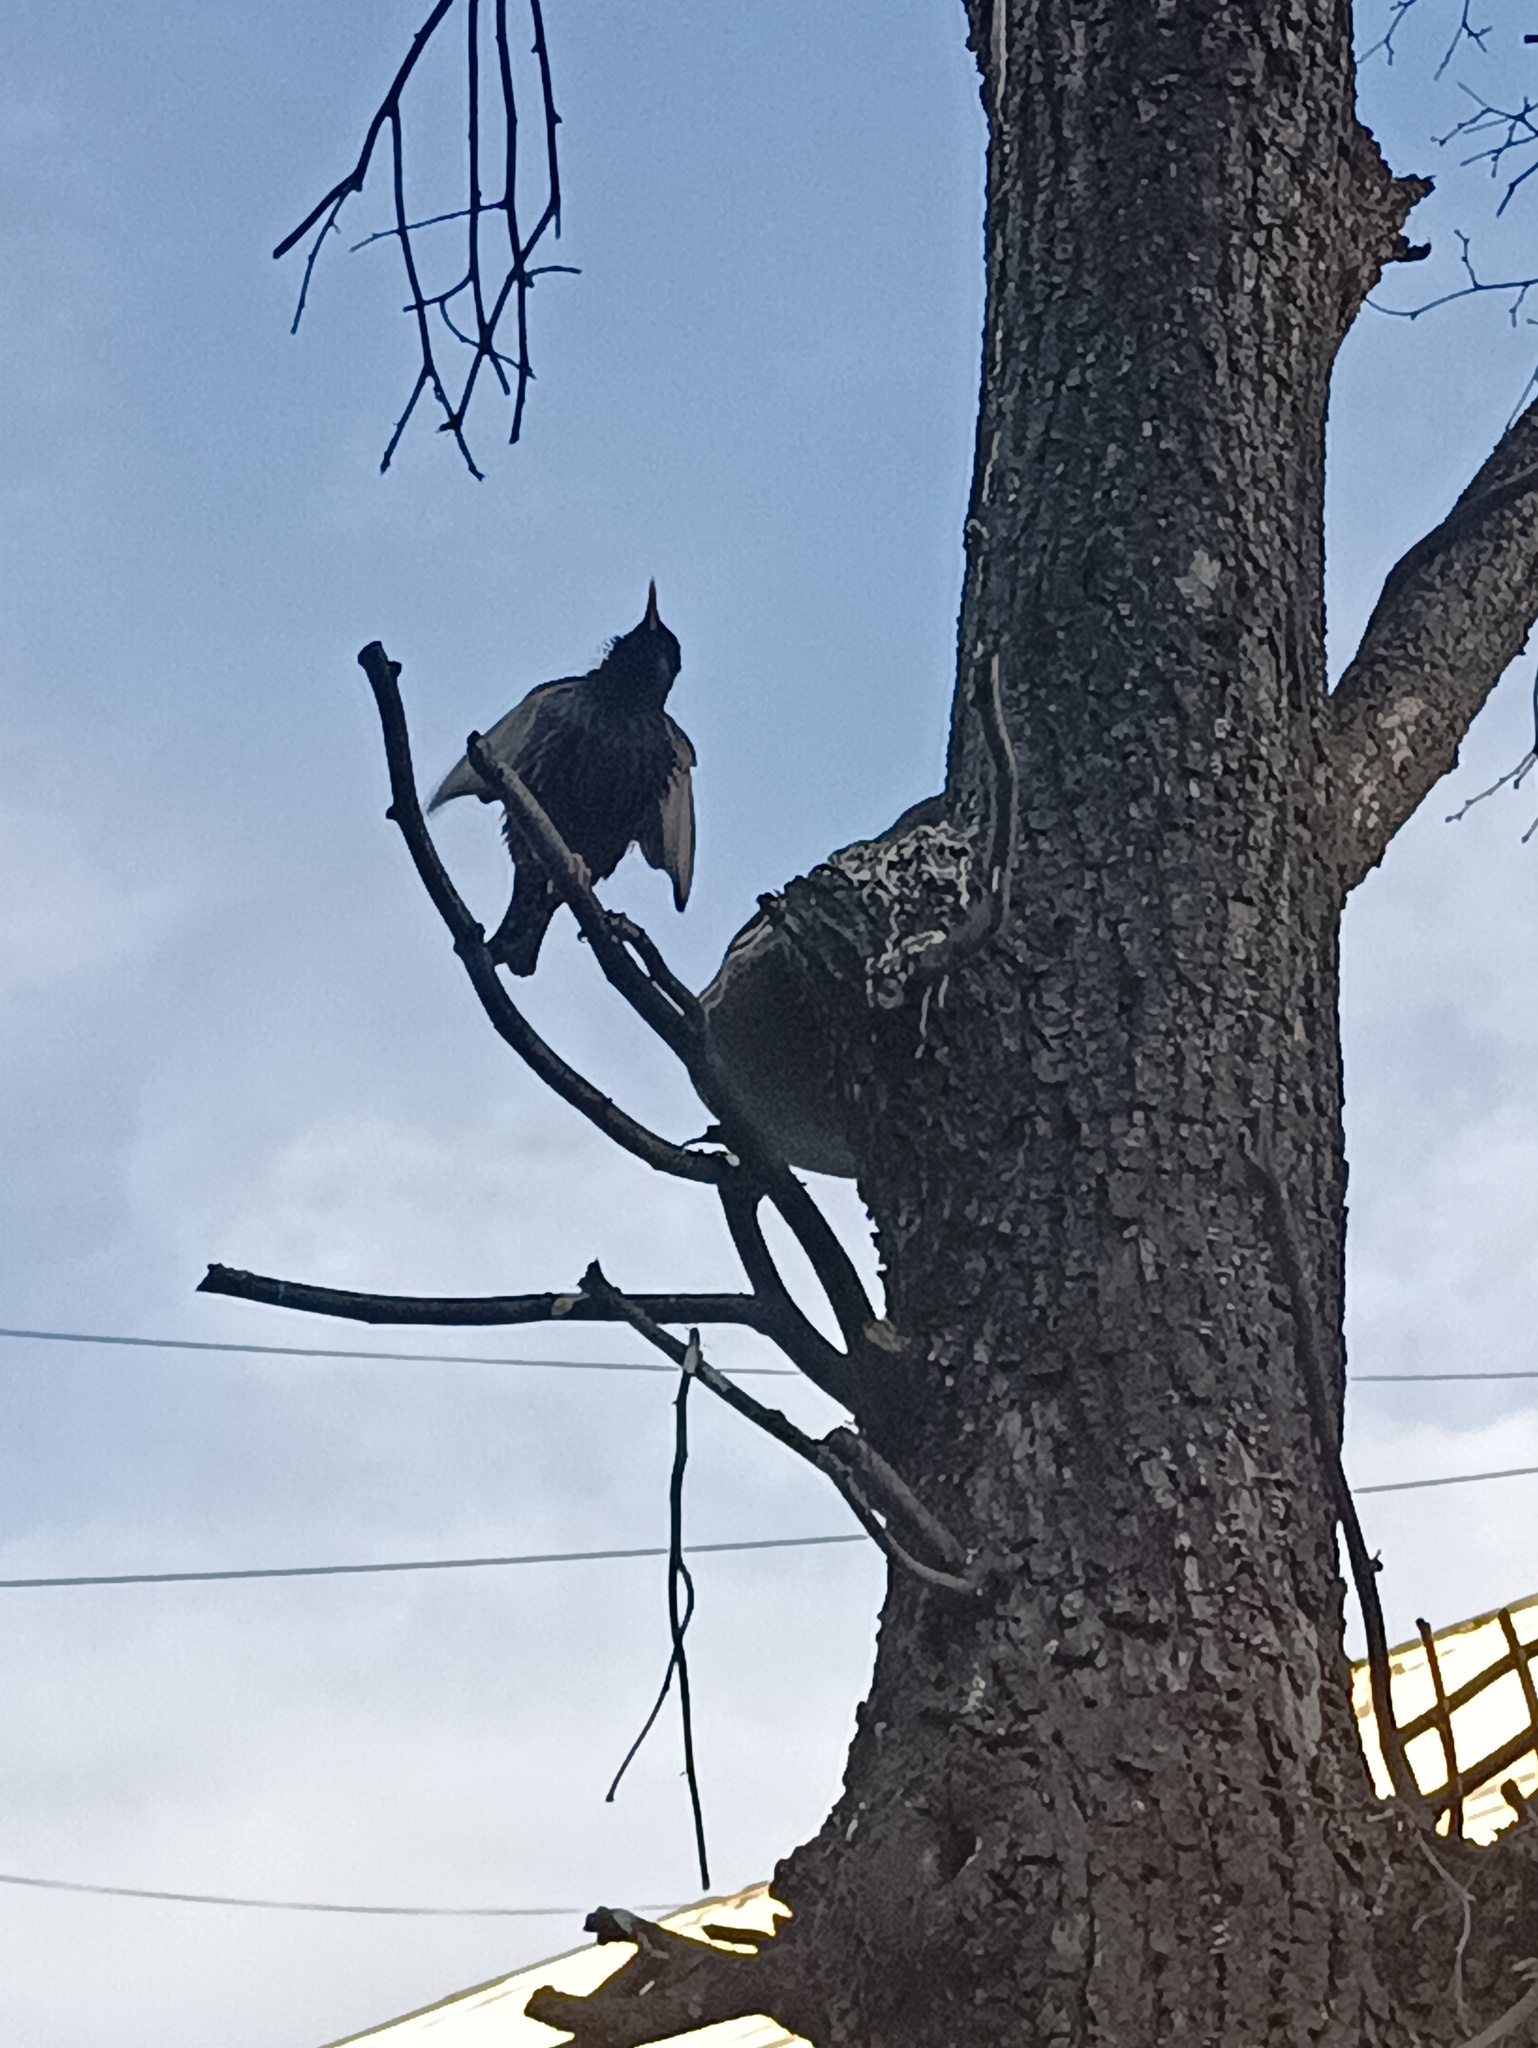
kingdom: Animalia
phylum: Chordata
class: Aves
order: Passeriformes
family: Sturnidae
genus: Sturnus
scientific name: Sturnus vulgaris
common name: Common starling
